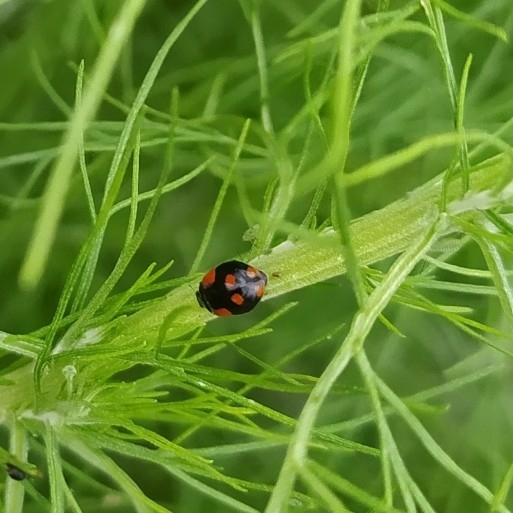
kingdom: Animalia
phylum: Arthropoda
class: Insecta
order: Coleoptera
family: Coccinellidae
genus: Adalia
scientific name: Adalia bipunctata
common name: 2-spot ladybird
